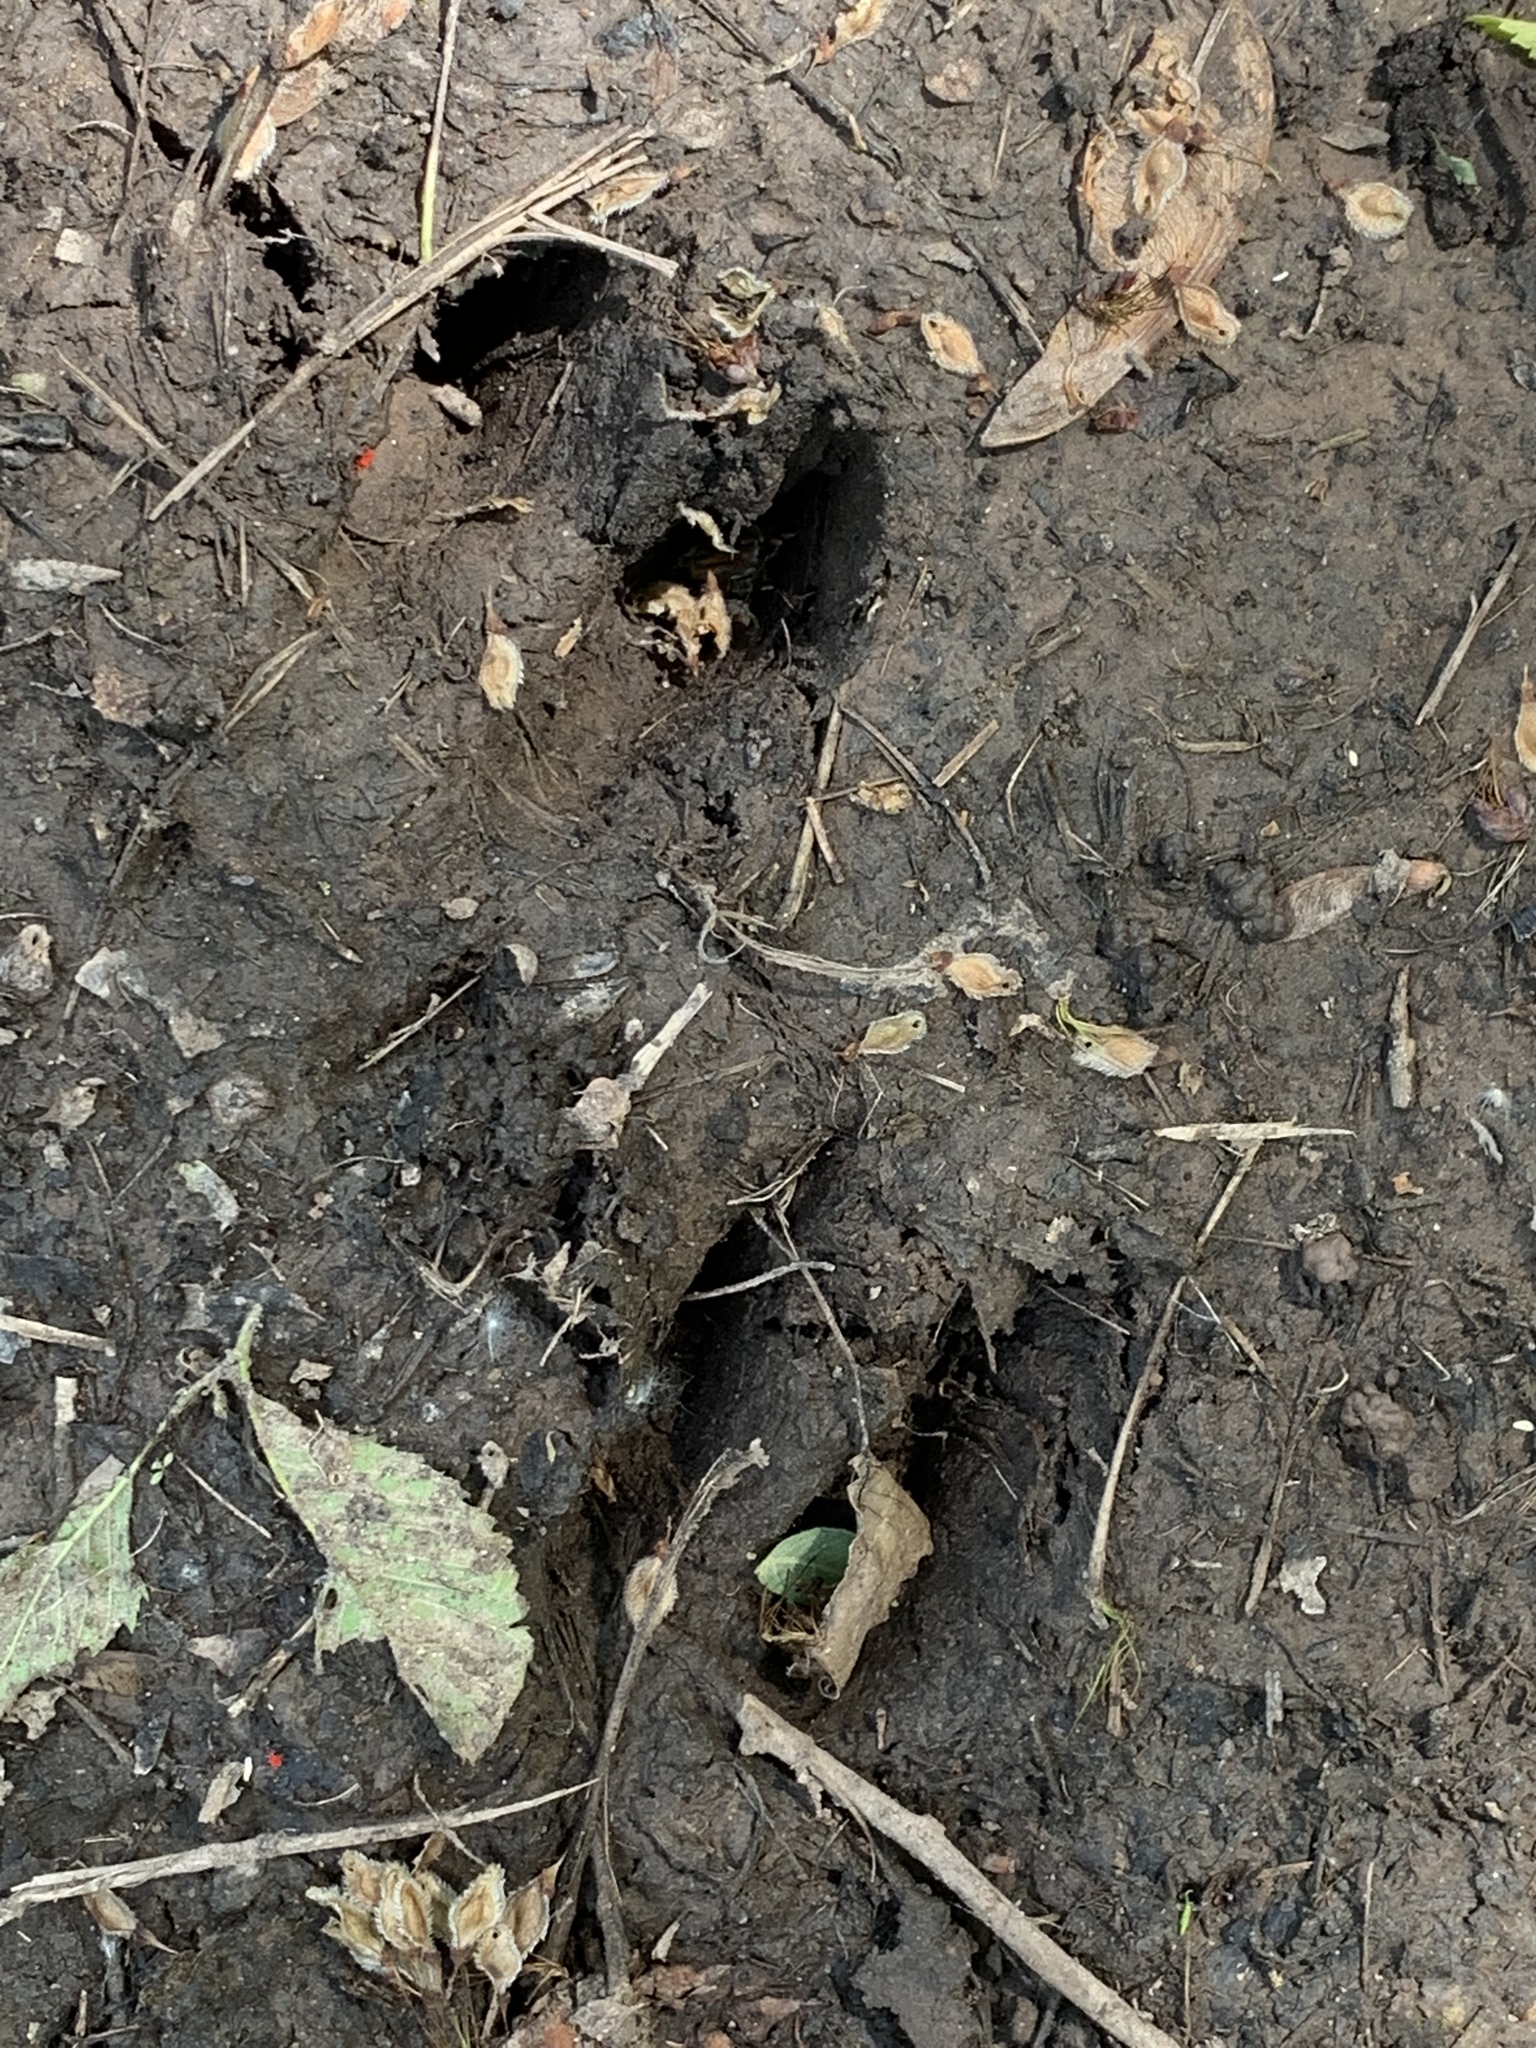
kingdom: Animalia
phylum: Chordata
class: Mammalia
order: Artiodactyla
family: Cervidae
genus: Odocoileus
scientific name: Odocoileus virginianus
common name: White-tailed deer
